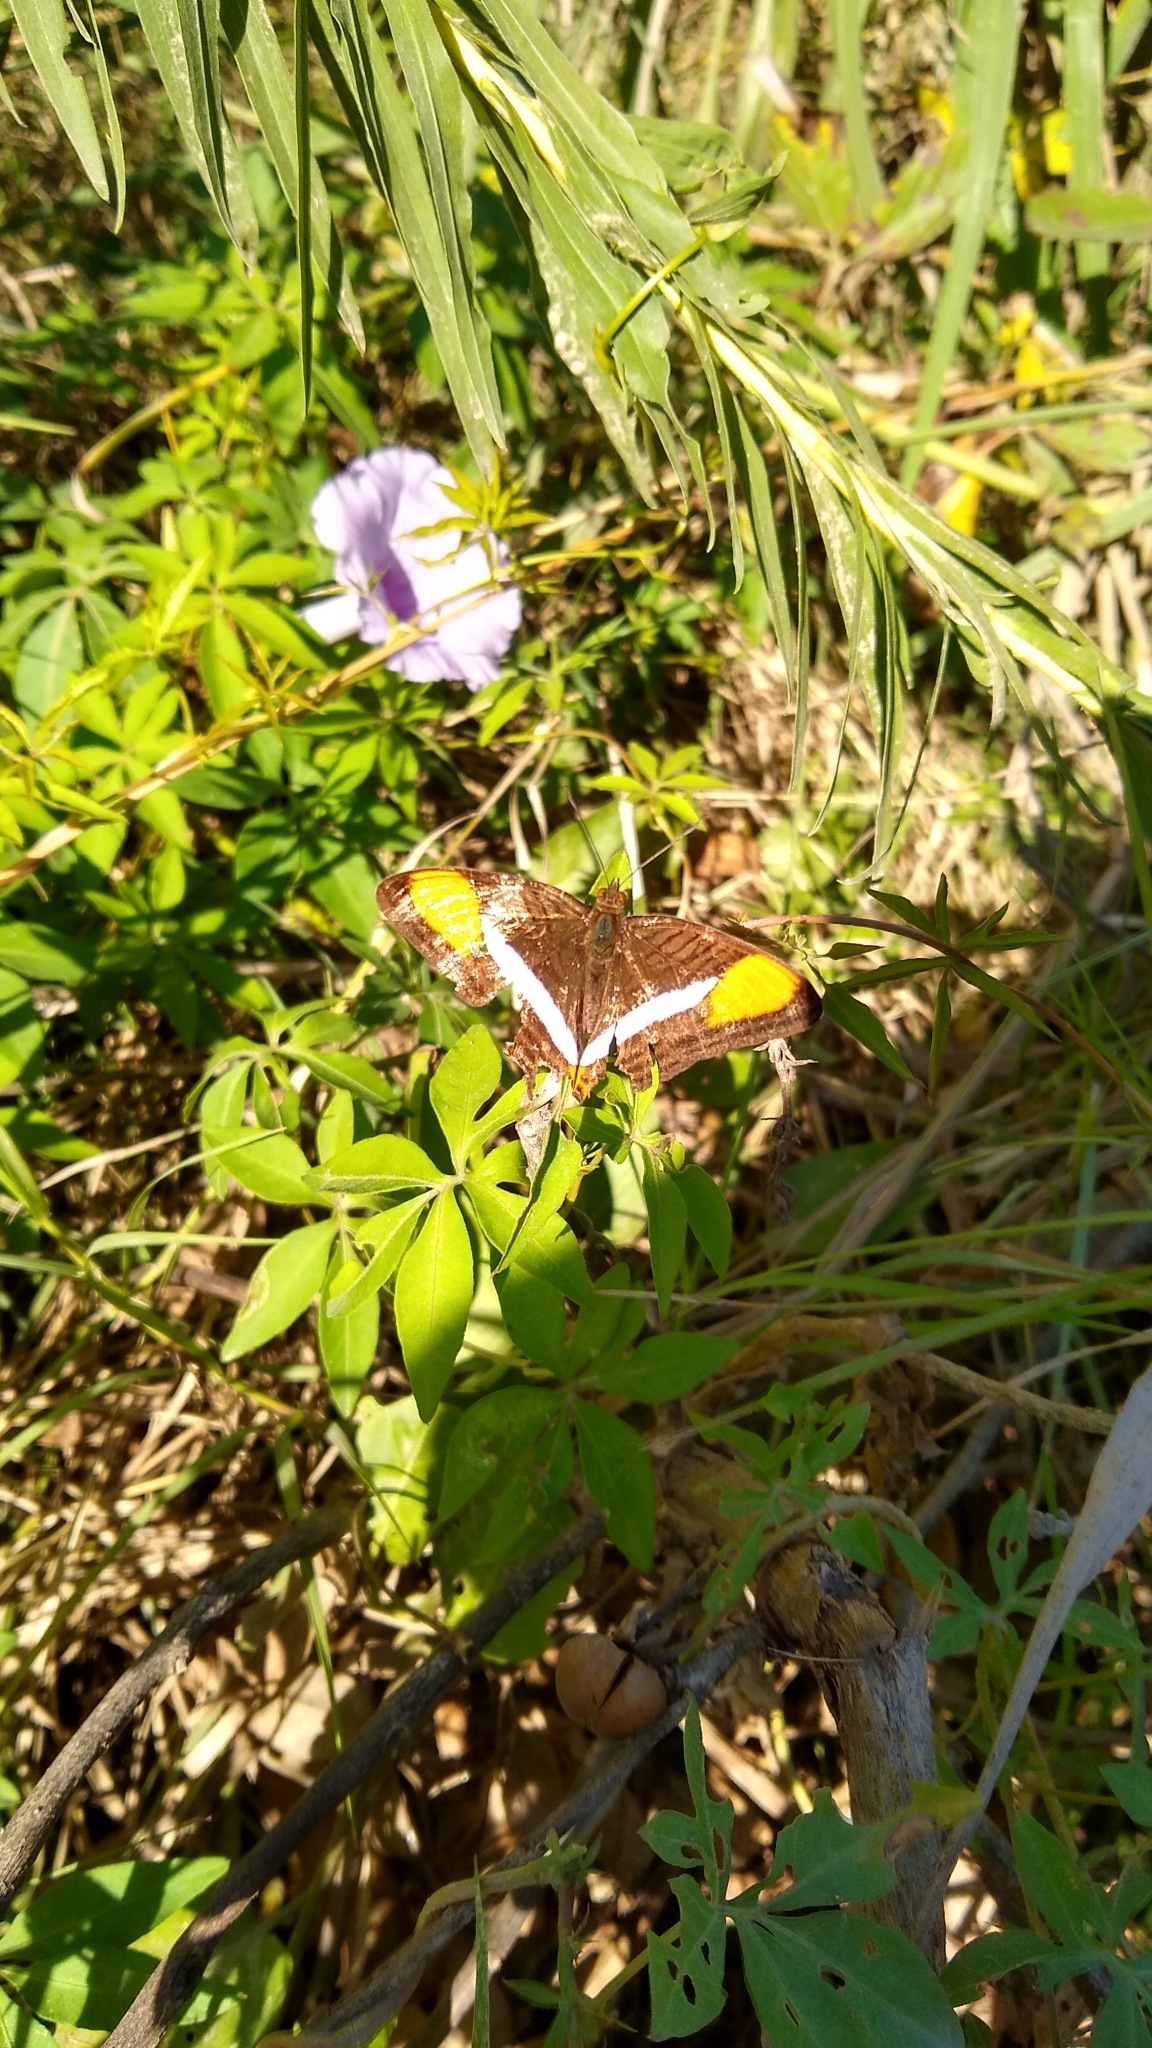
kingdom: Animalia
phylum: Arthropoda
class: Insecta
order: Lepidoptera
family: Nymphalidae
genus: Limenitis
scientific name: Limenitis syma
